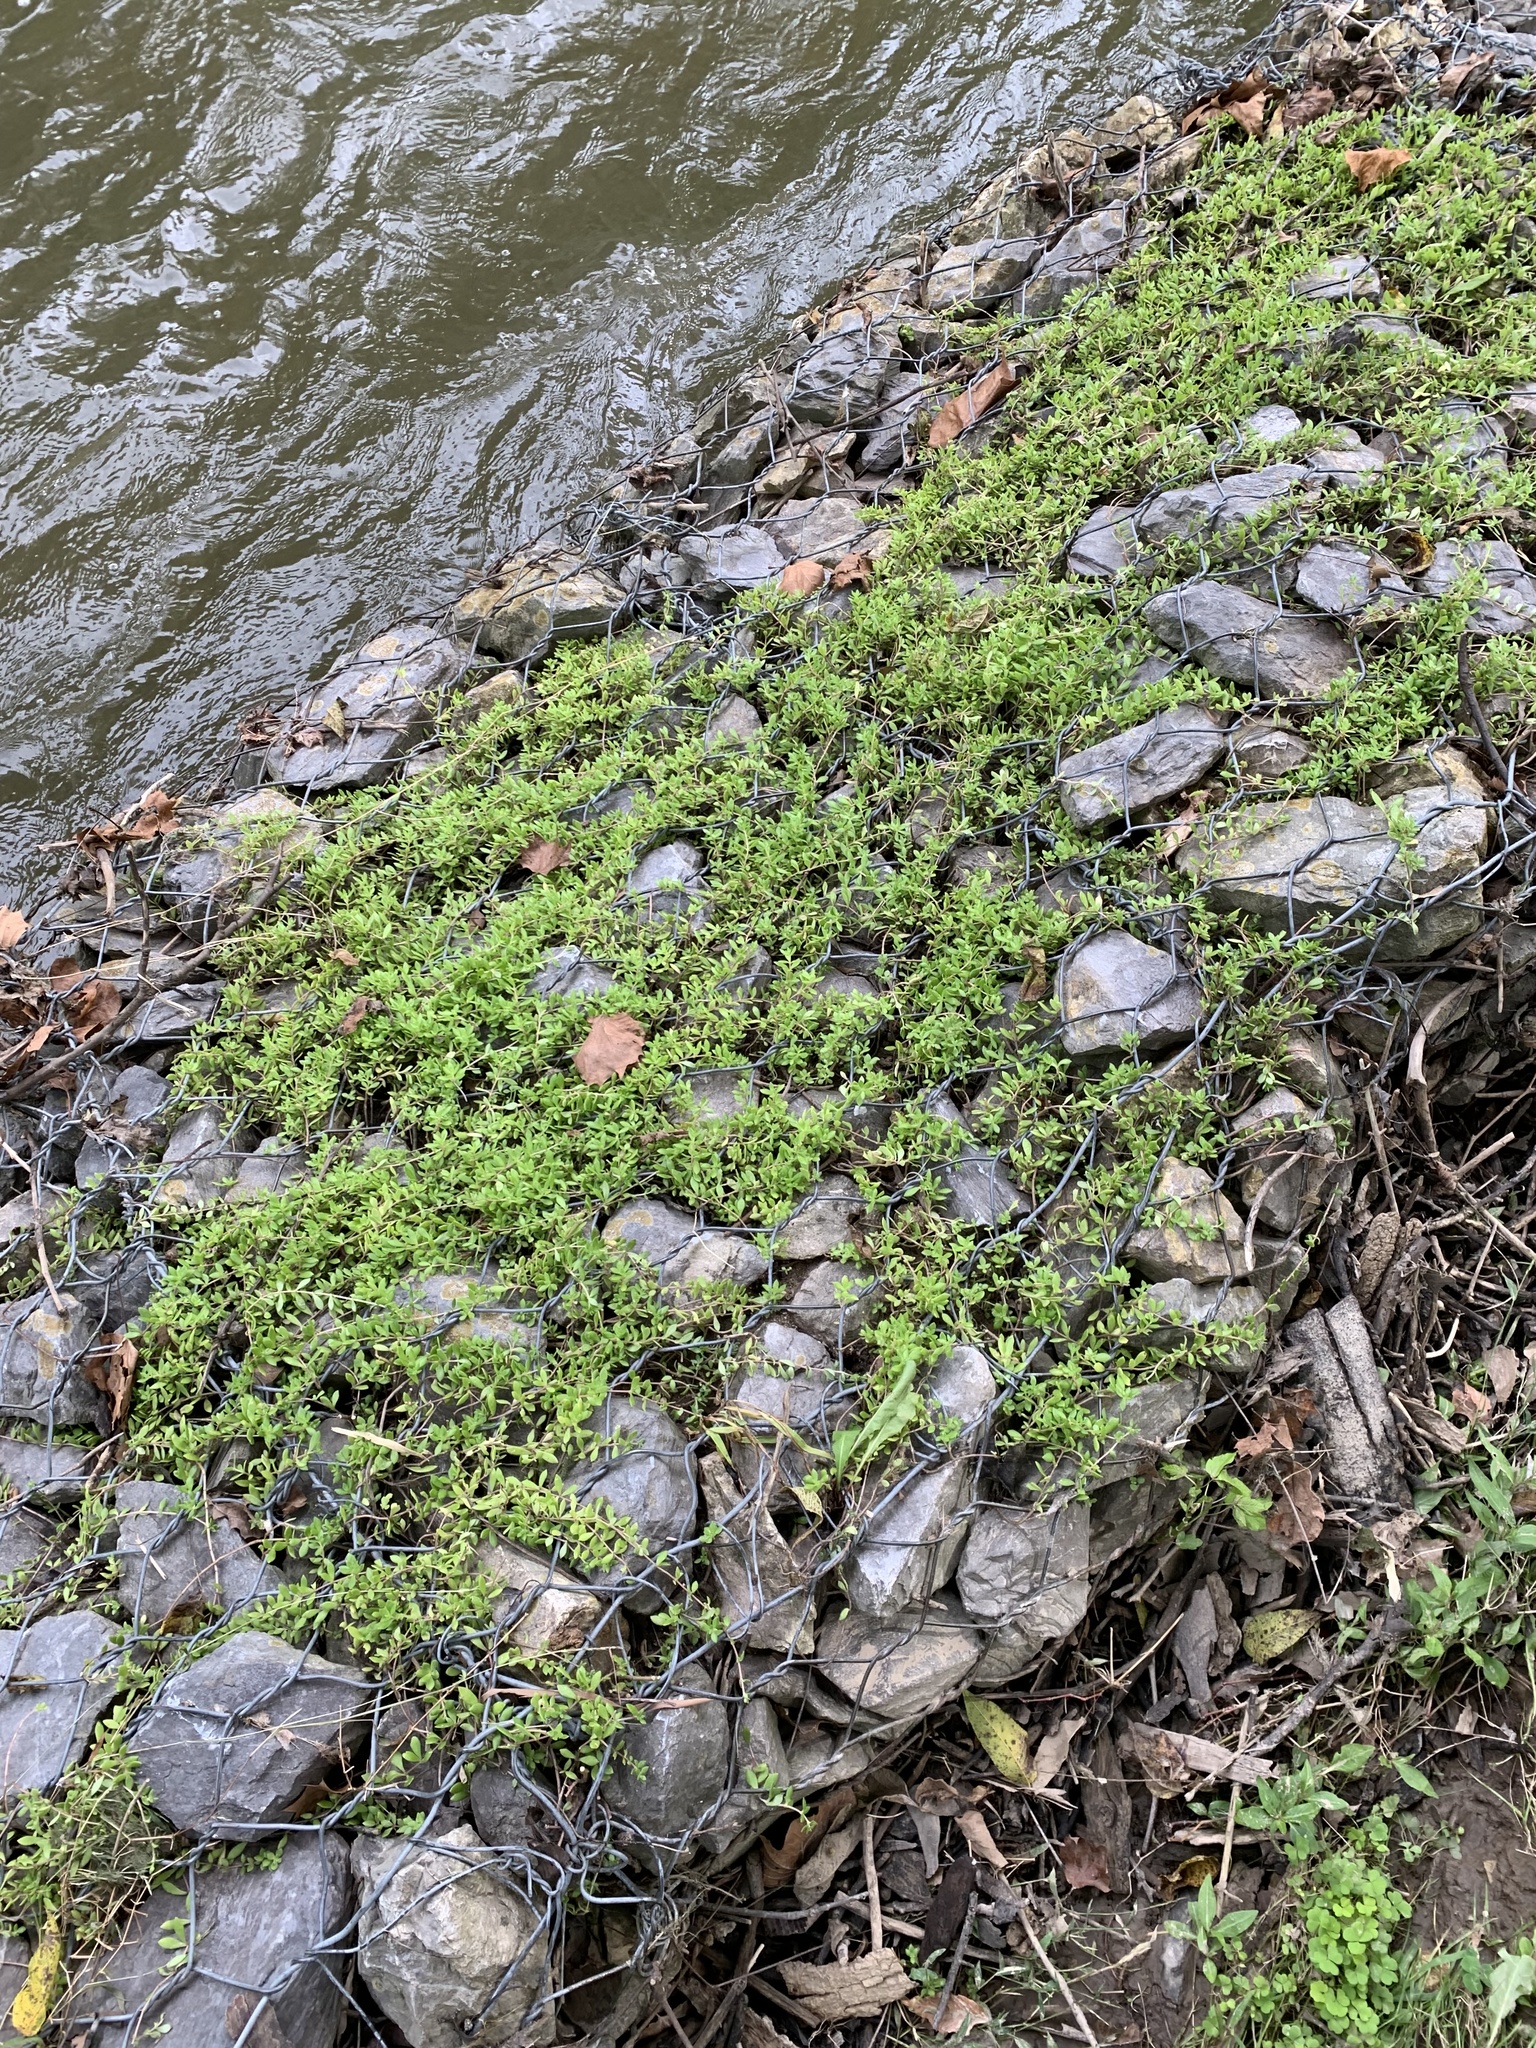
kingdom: Plantae
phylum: Tracheophyta
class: Magnoliopsida
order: Saxifragales
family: Crassulaceae
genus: Sedum
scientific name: Sedum sarmentosum
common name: Stringy stonecrop
